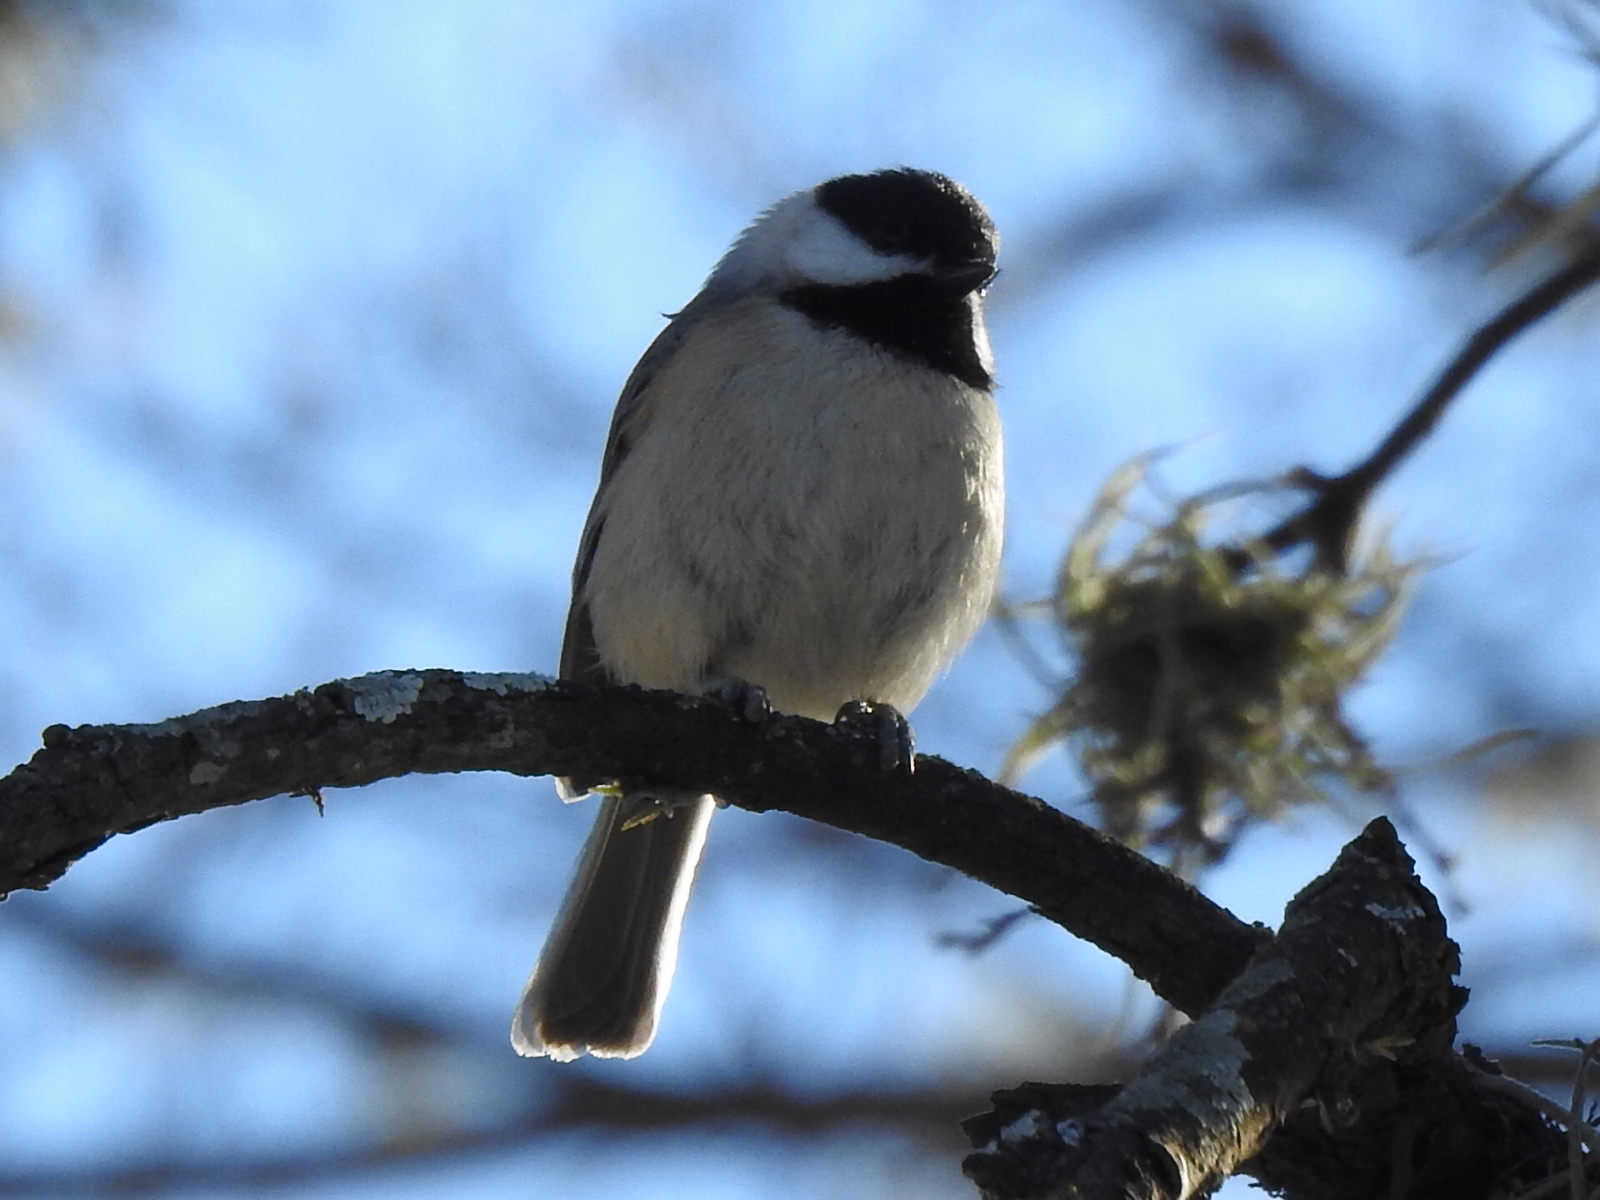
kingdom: Animalia
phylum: Chordata
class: Aves
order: Passeriformes
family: Paridae
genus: Poecile
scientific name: Poecile carolinensis
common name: Carolina chickadee
